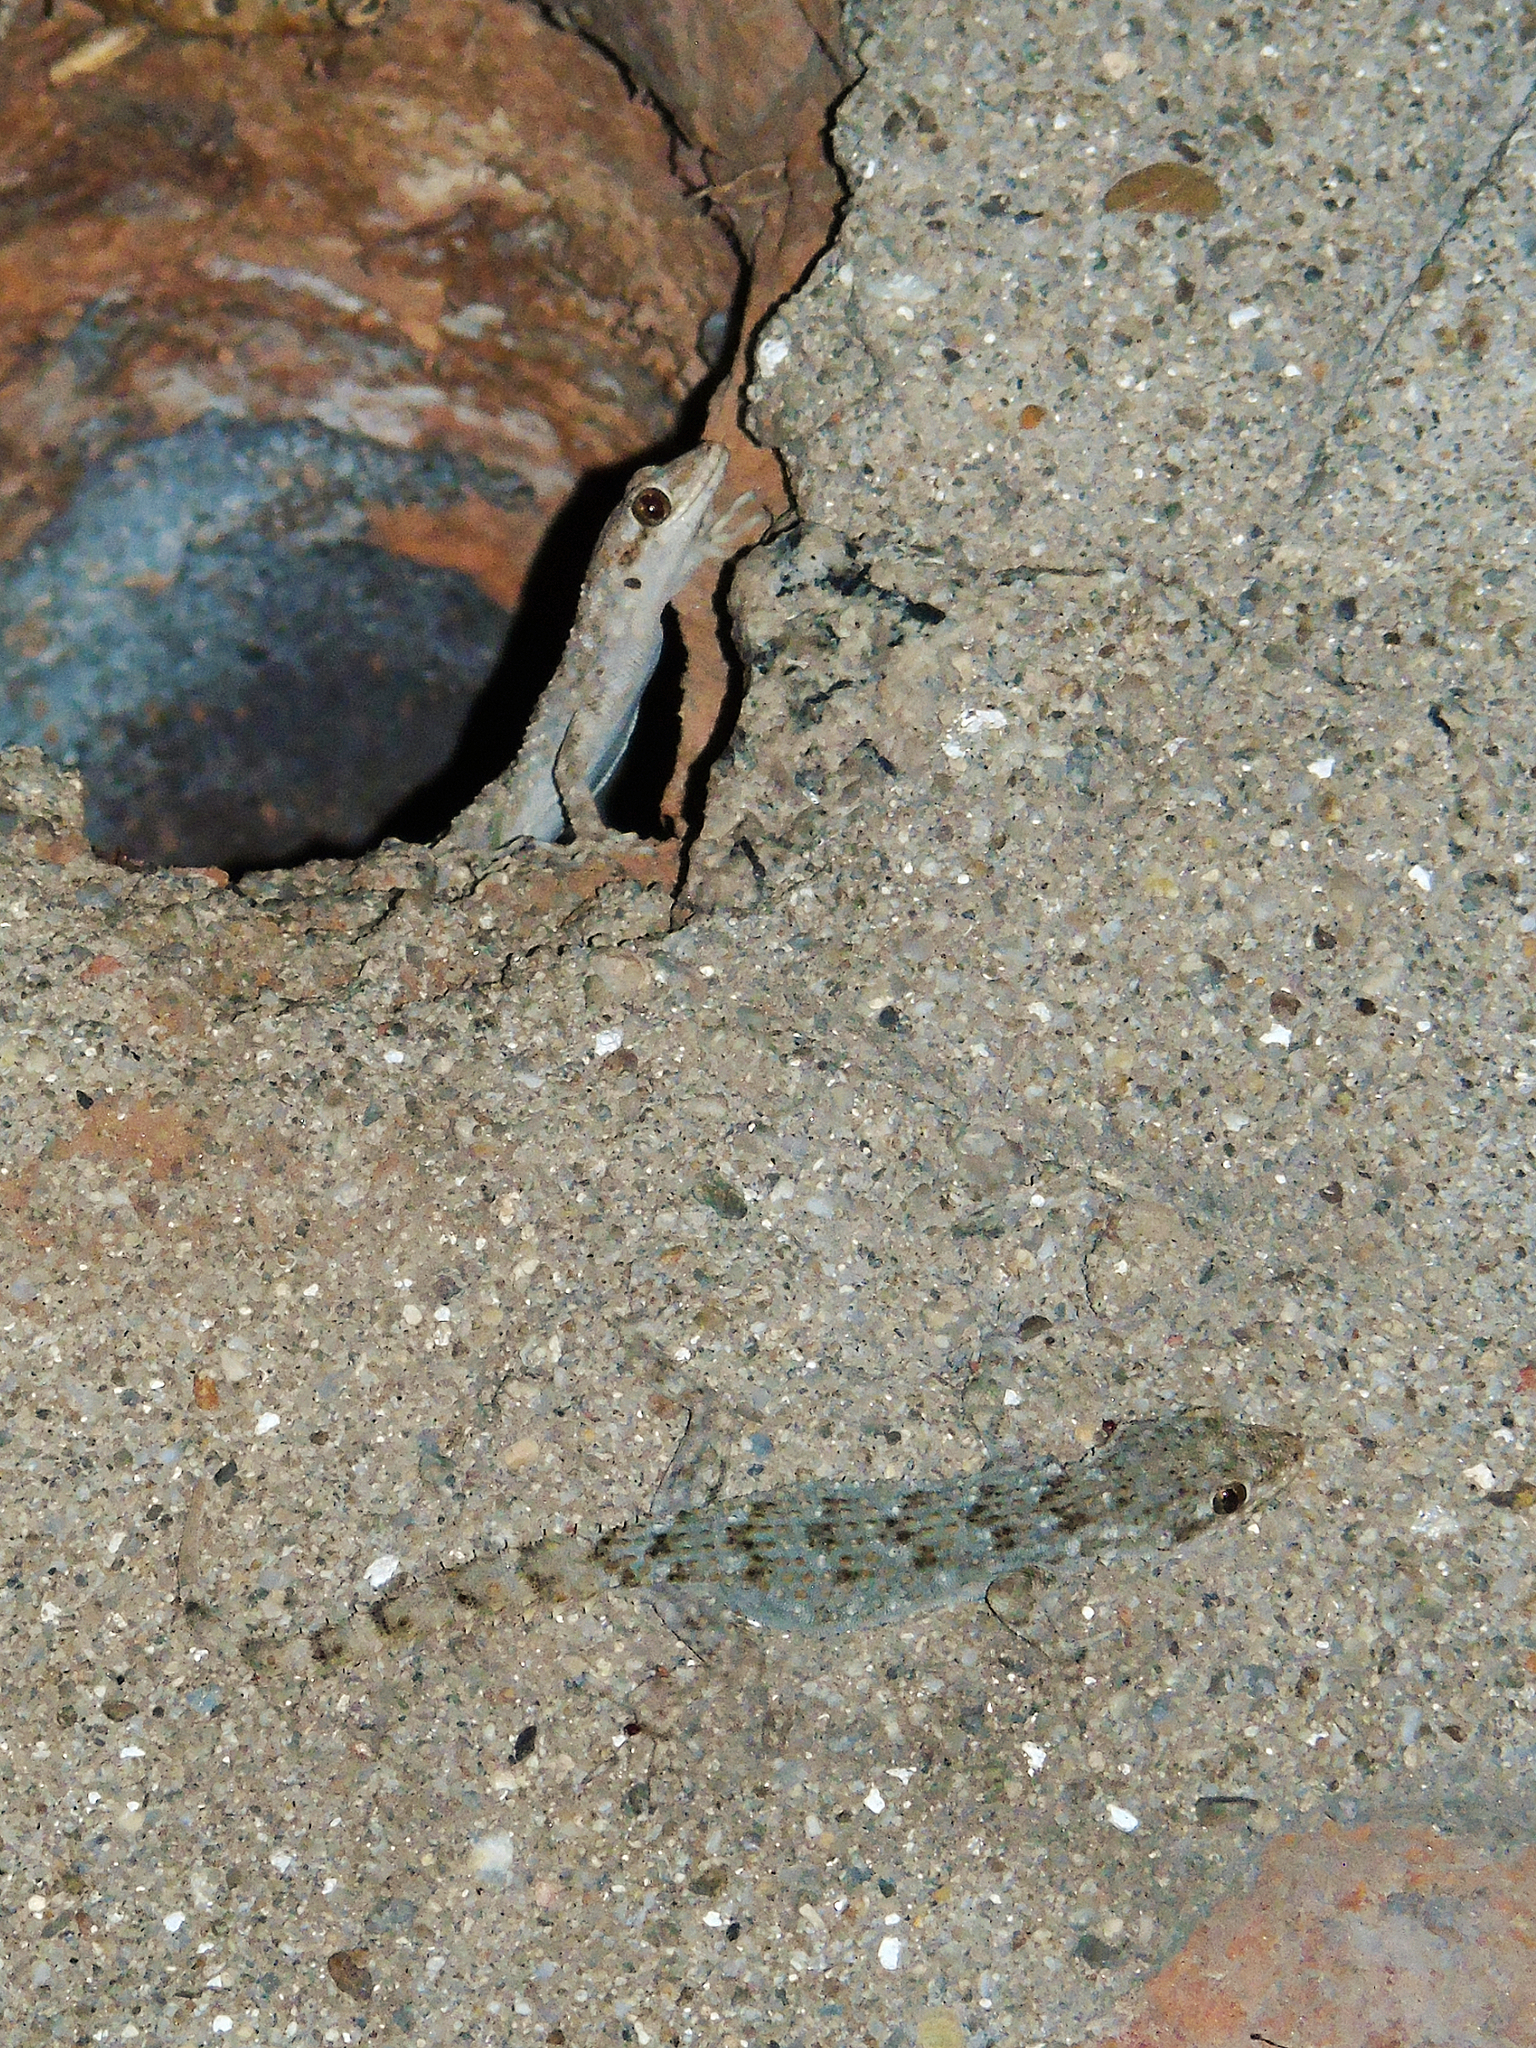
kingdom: Animalia
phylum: Chordata
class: Squamata
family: Gekkonidae
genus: Mediodactylus
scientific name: Mediodactylus kotschyi
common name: Kotschy's gecko
